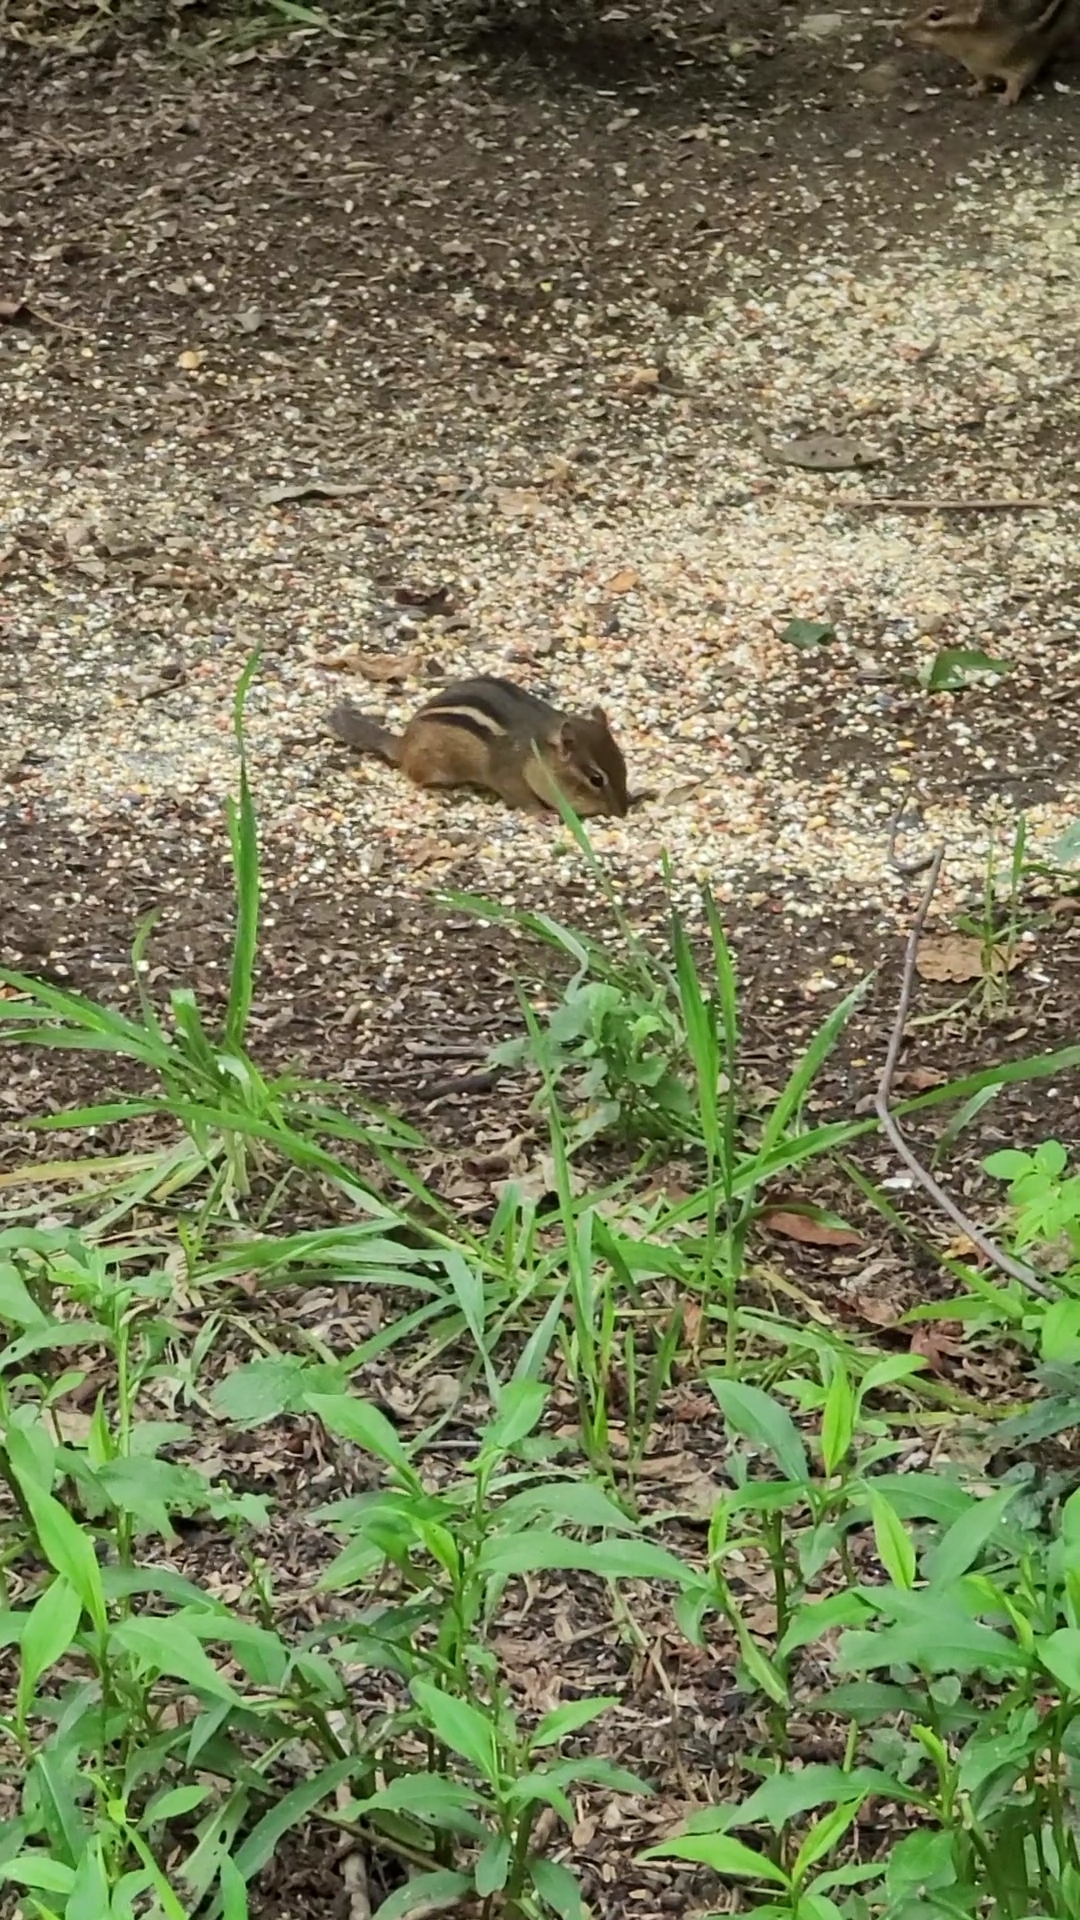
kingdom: Animalia
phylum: Chordata
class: Mammalia
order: Rodentia
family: Sciuridae
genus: Tamias
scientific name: Tamias striatus
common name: Eastern chipmunk
